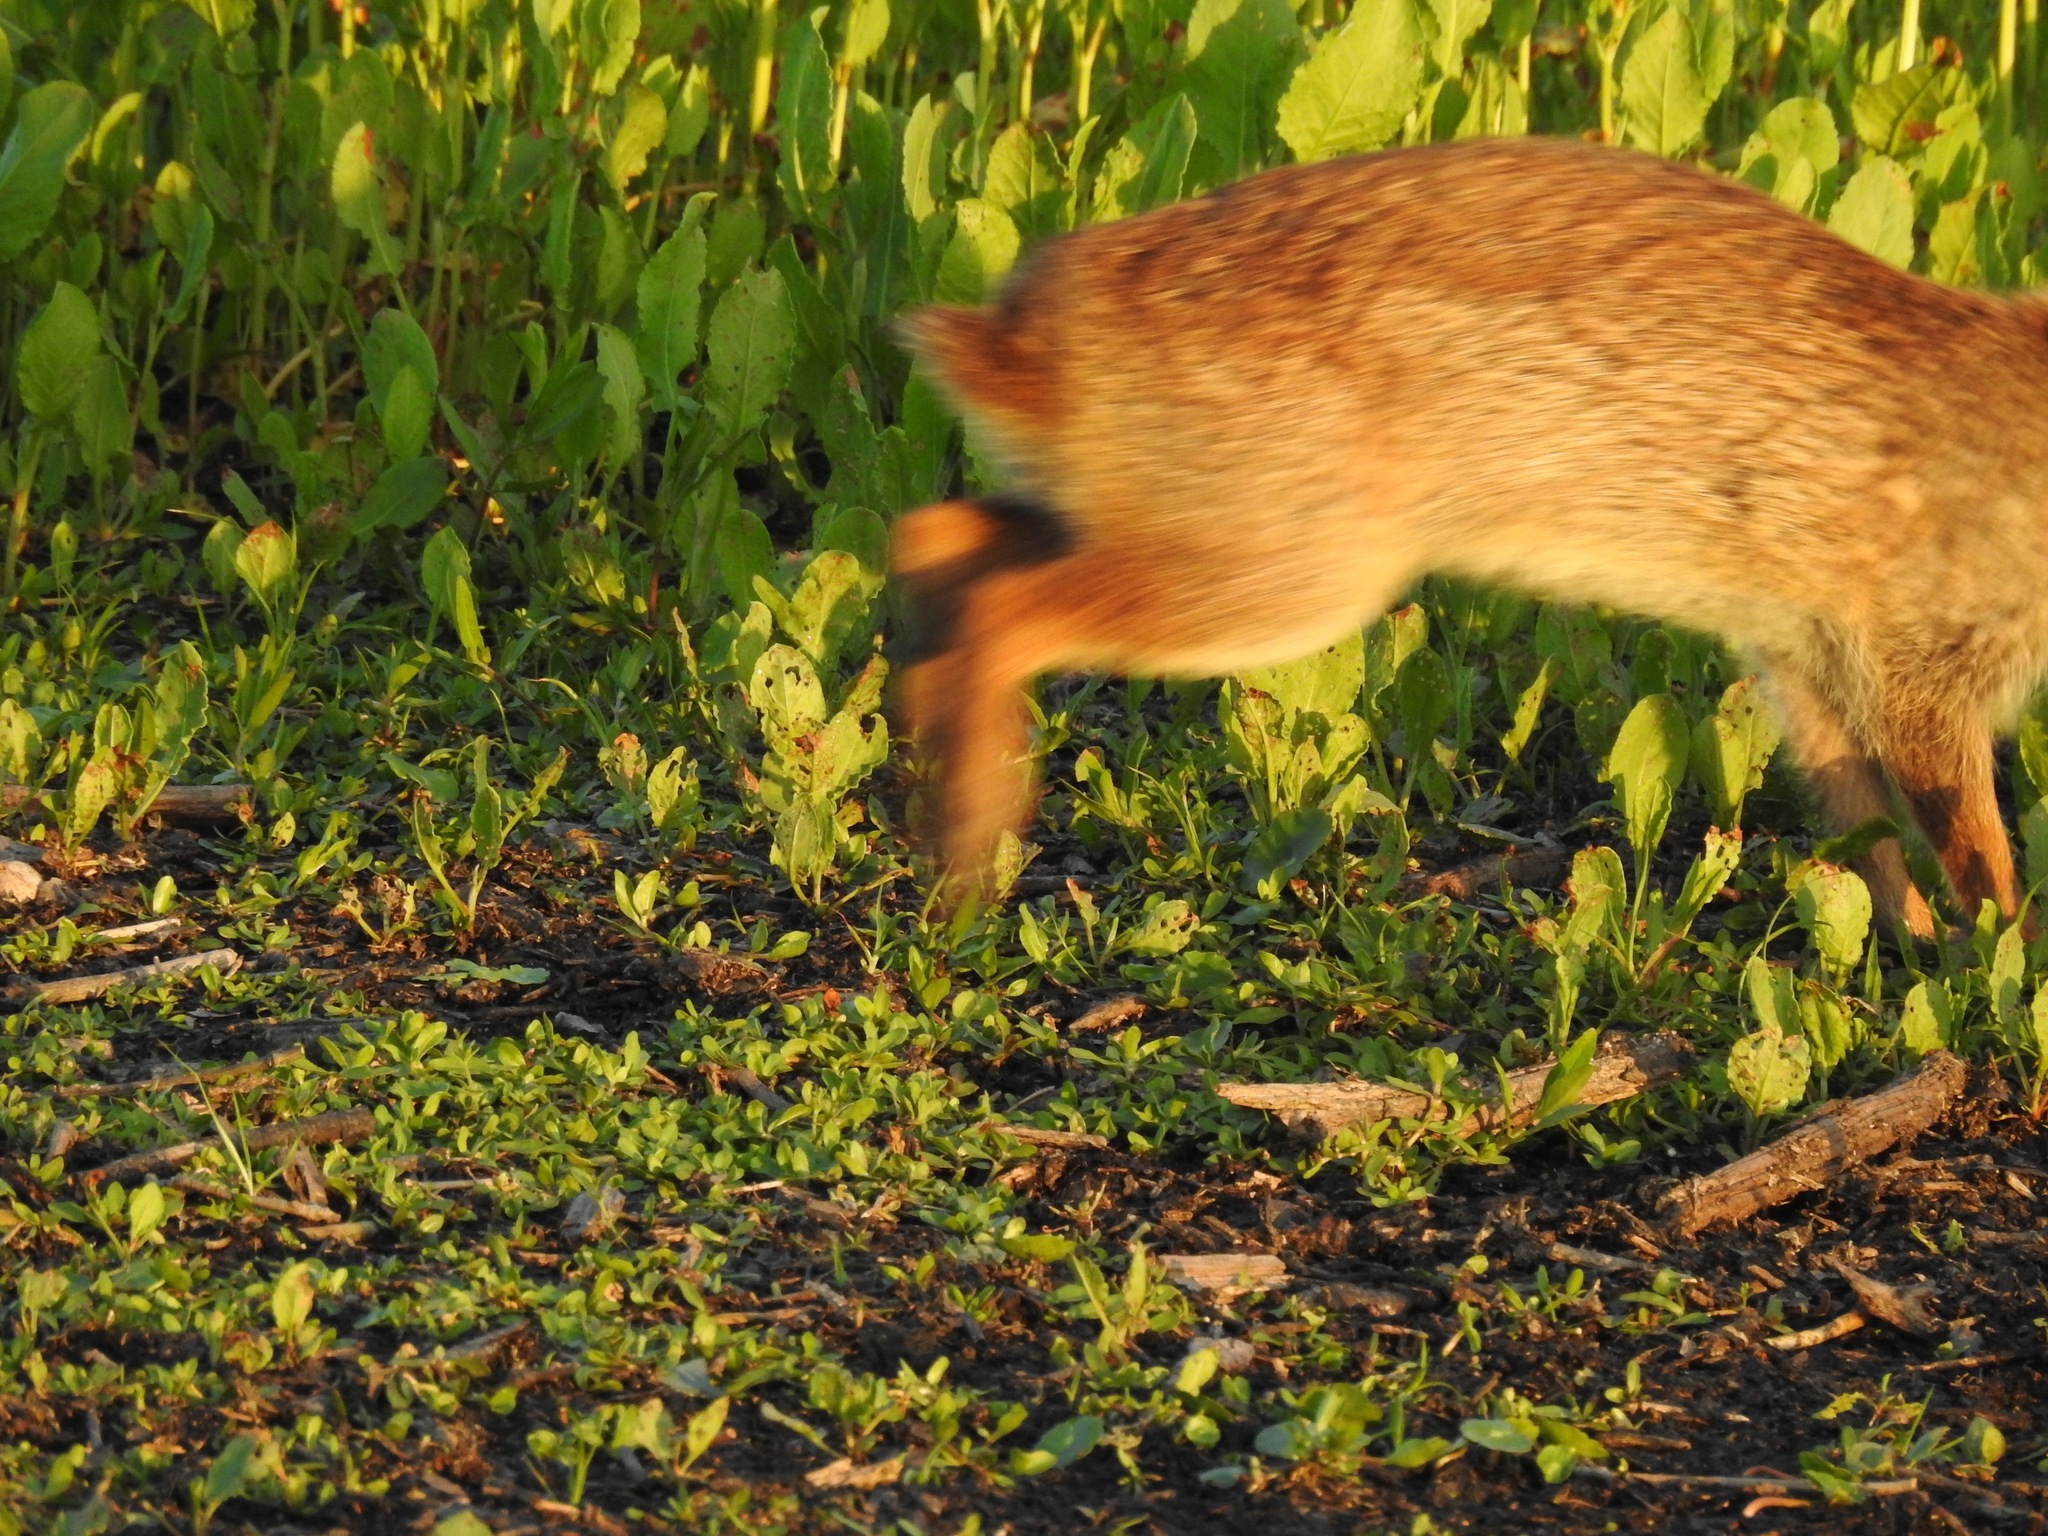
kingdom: Animalia
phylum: Chordata
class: Mammalia
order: Lagomorpha
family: Leporidae
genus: Sylvilagus
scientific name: Sylvilagus palustris
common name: Marsh rabbit
